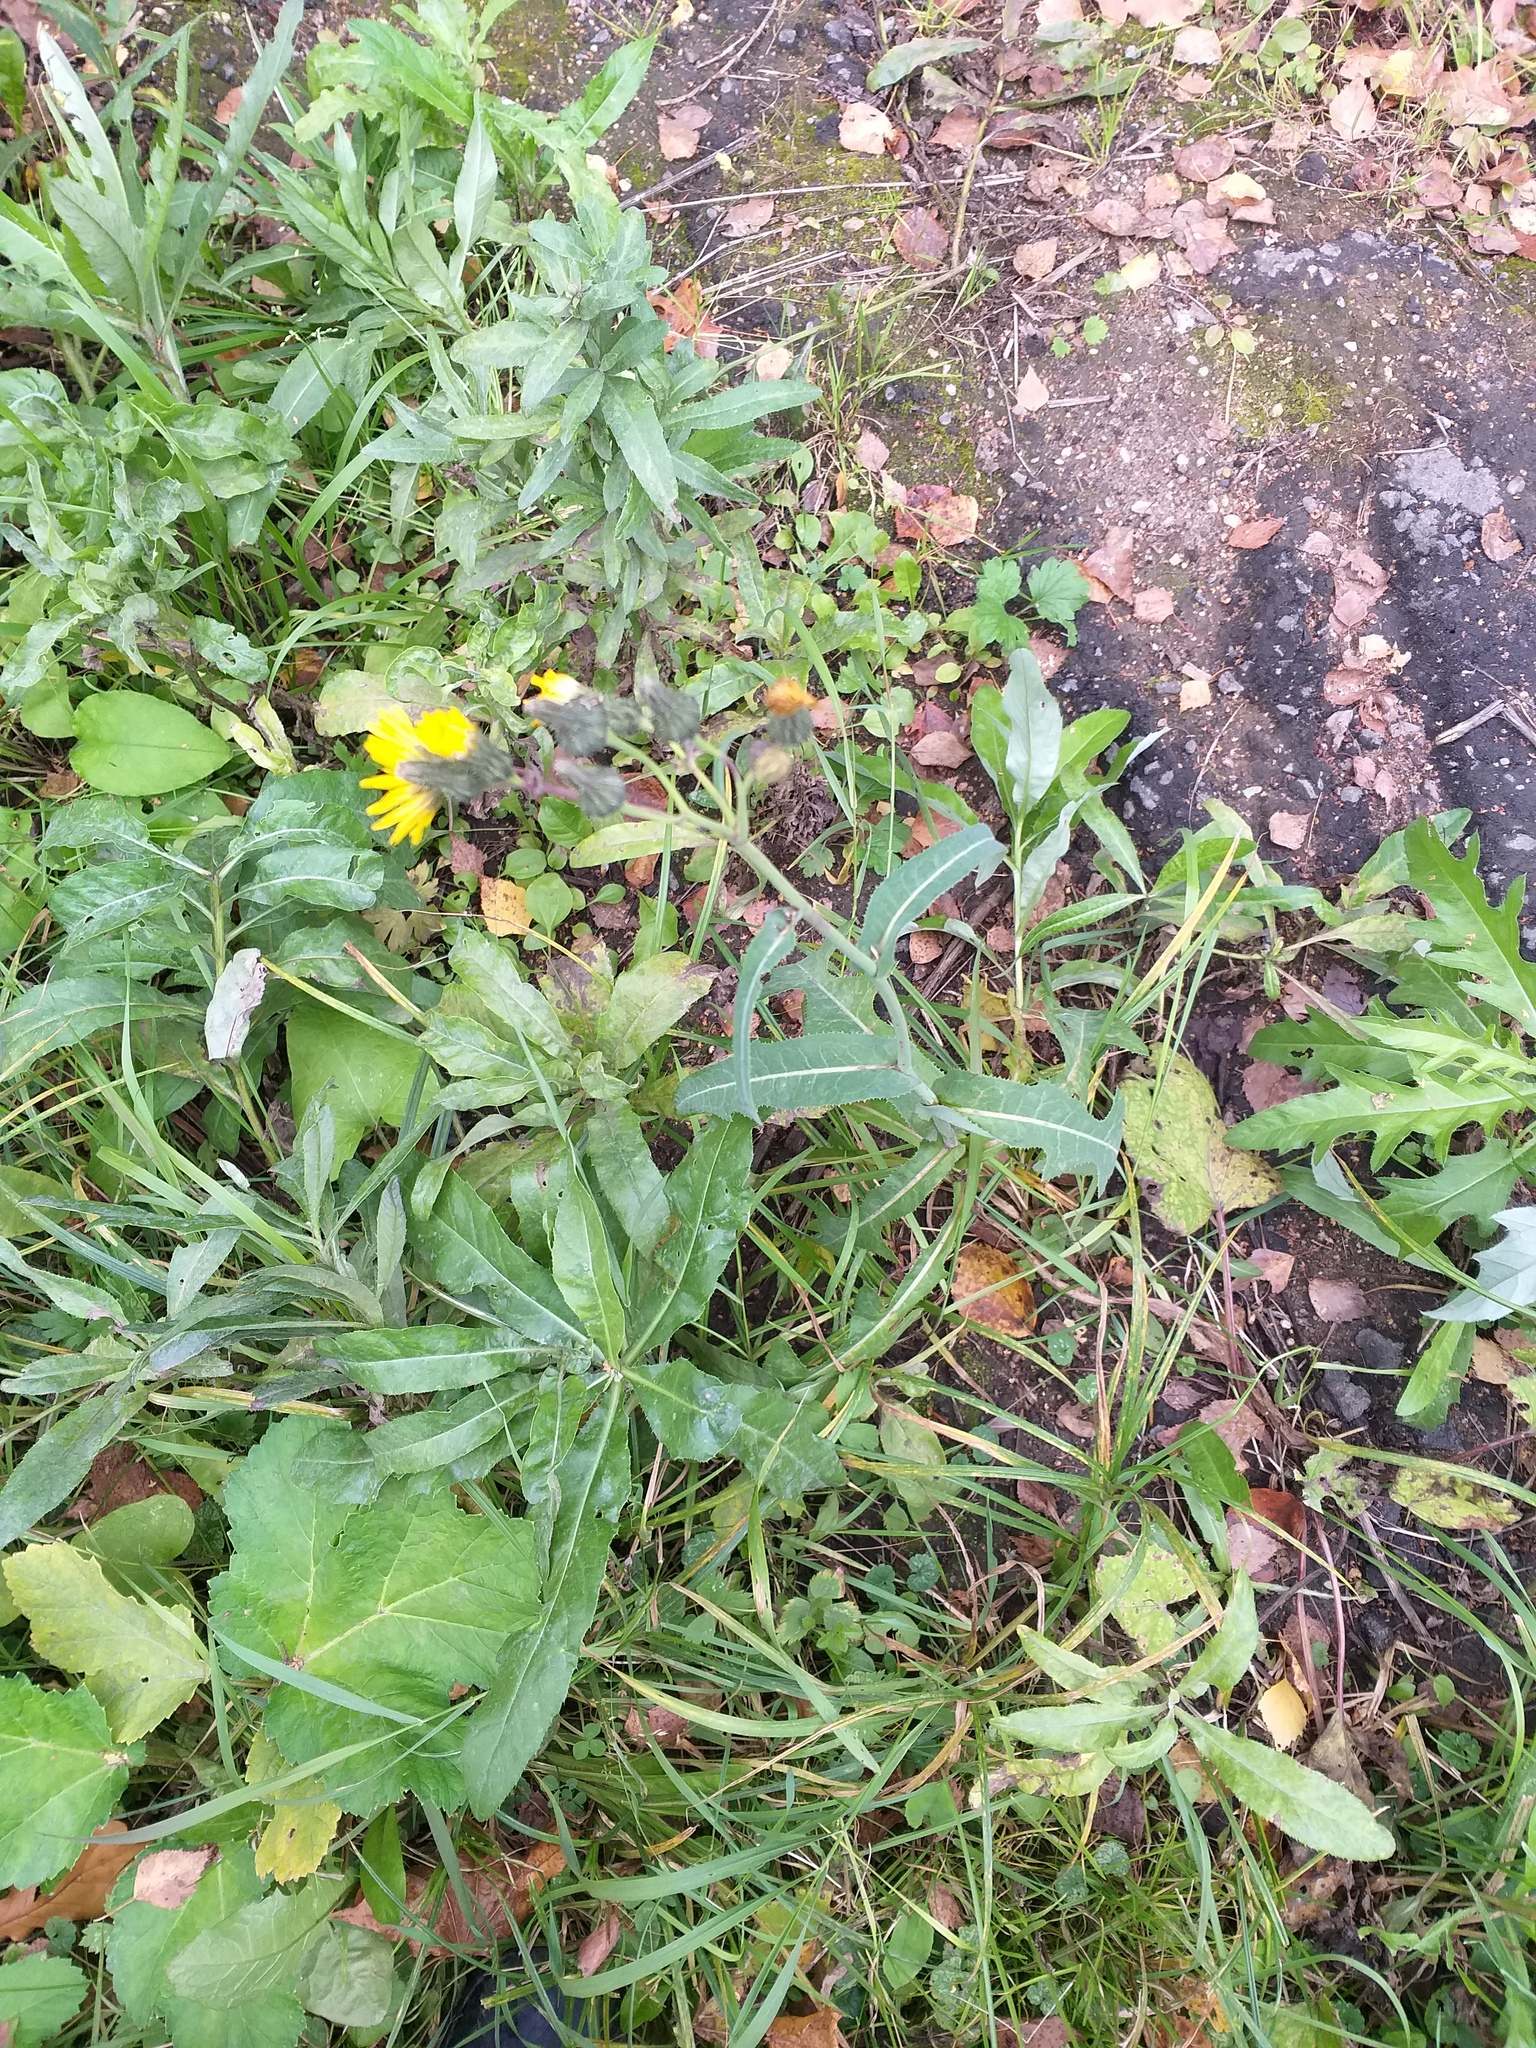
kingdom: Plantae
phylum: Tracheophyta
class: Magnoliopsida
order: Asterales
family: Asteraceae
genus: Sonchus
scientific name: Sonchus arvensis
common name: Perennial sow-thistle
